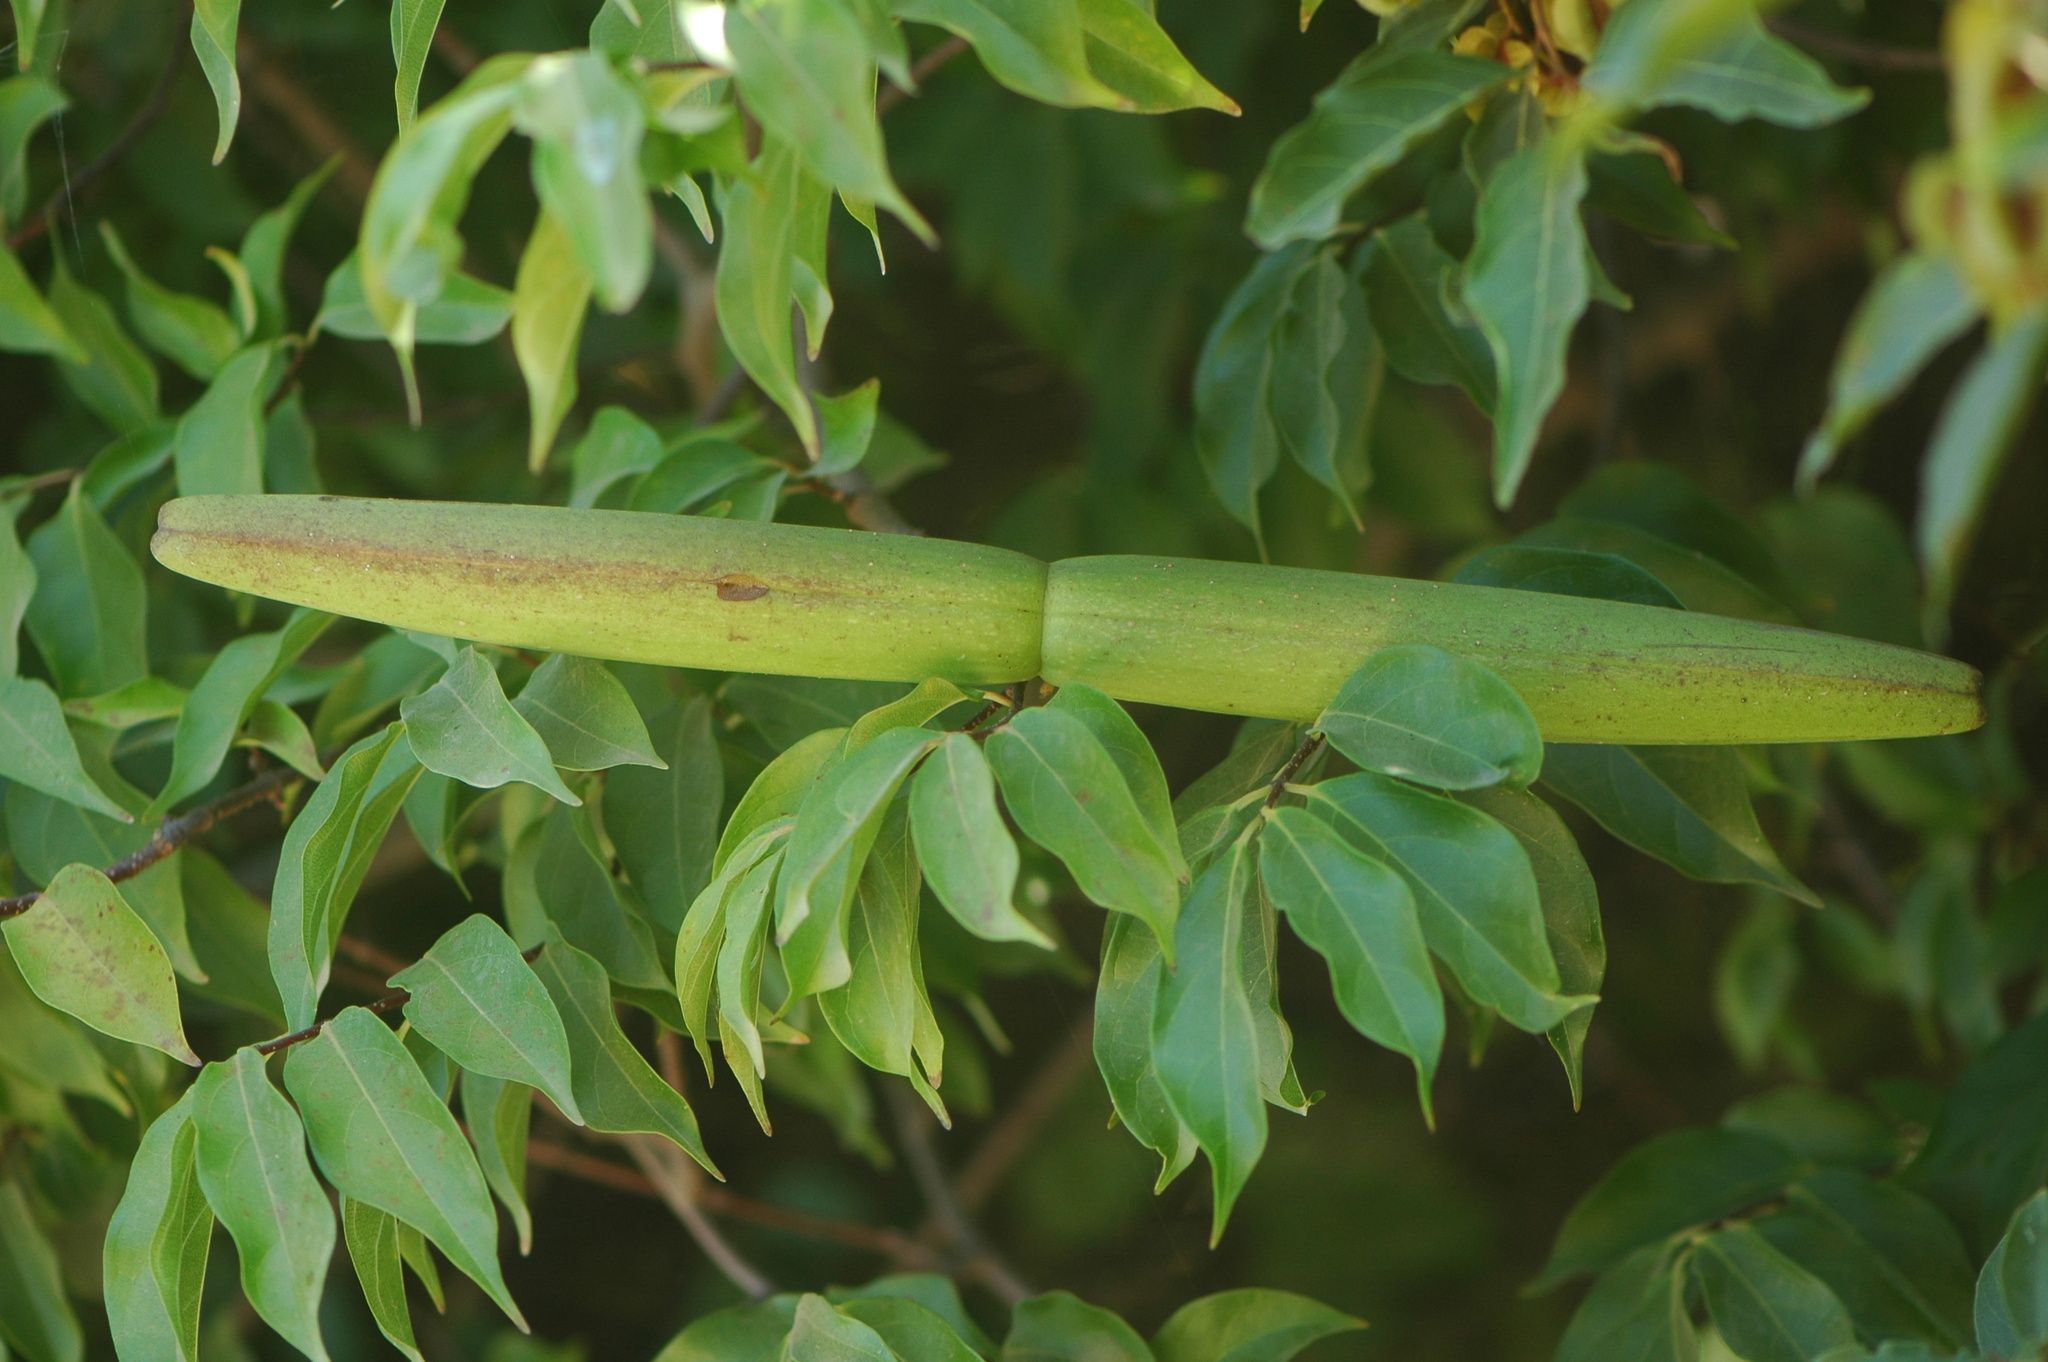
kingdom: Plantae
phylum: Tracheophyta
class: Magnoliopsida
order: Gentianales
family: Apocynaceae
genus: Strophanthus
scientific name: Strophanthus sarmentosus
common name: Poison arrowvine
